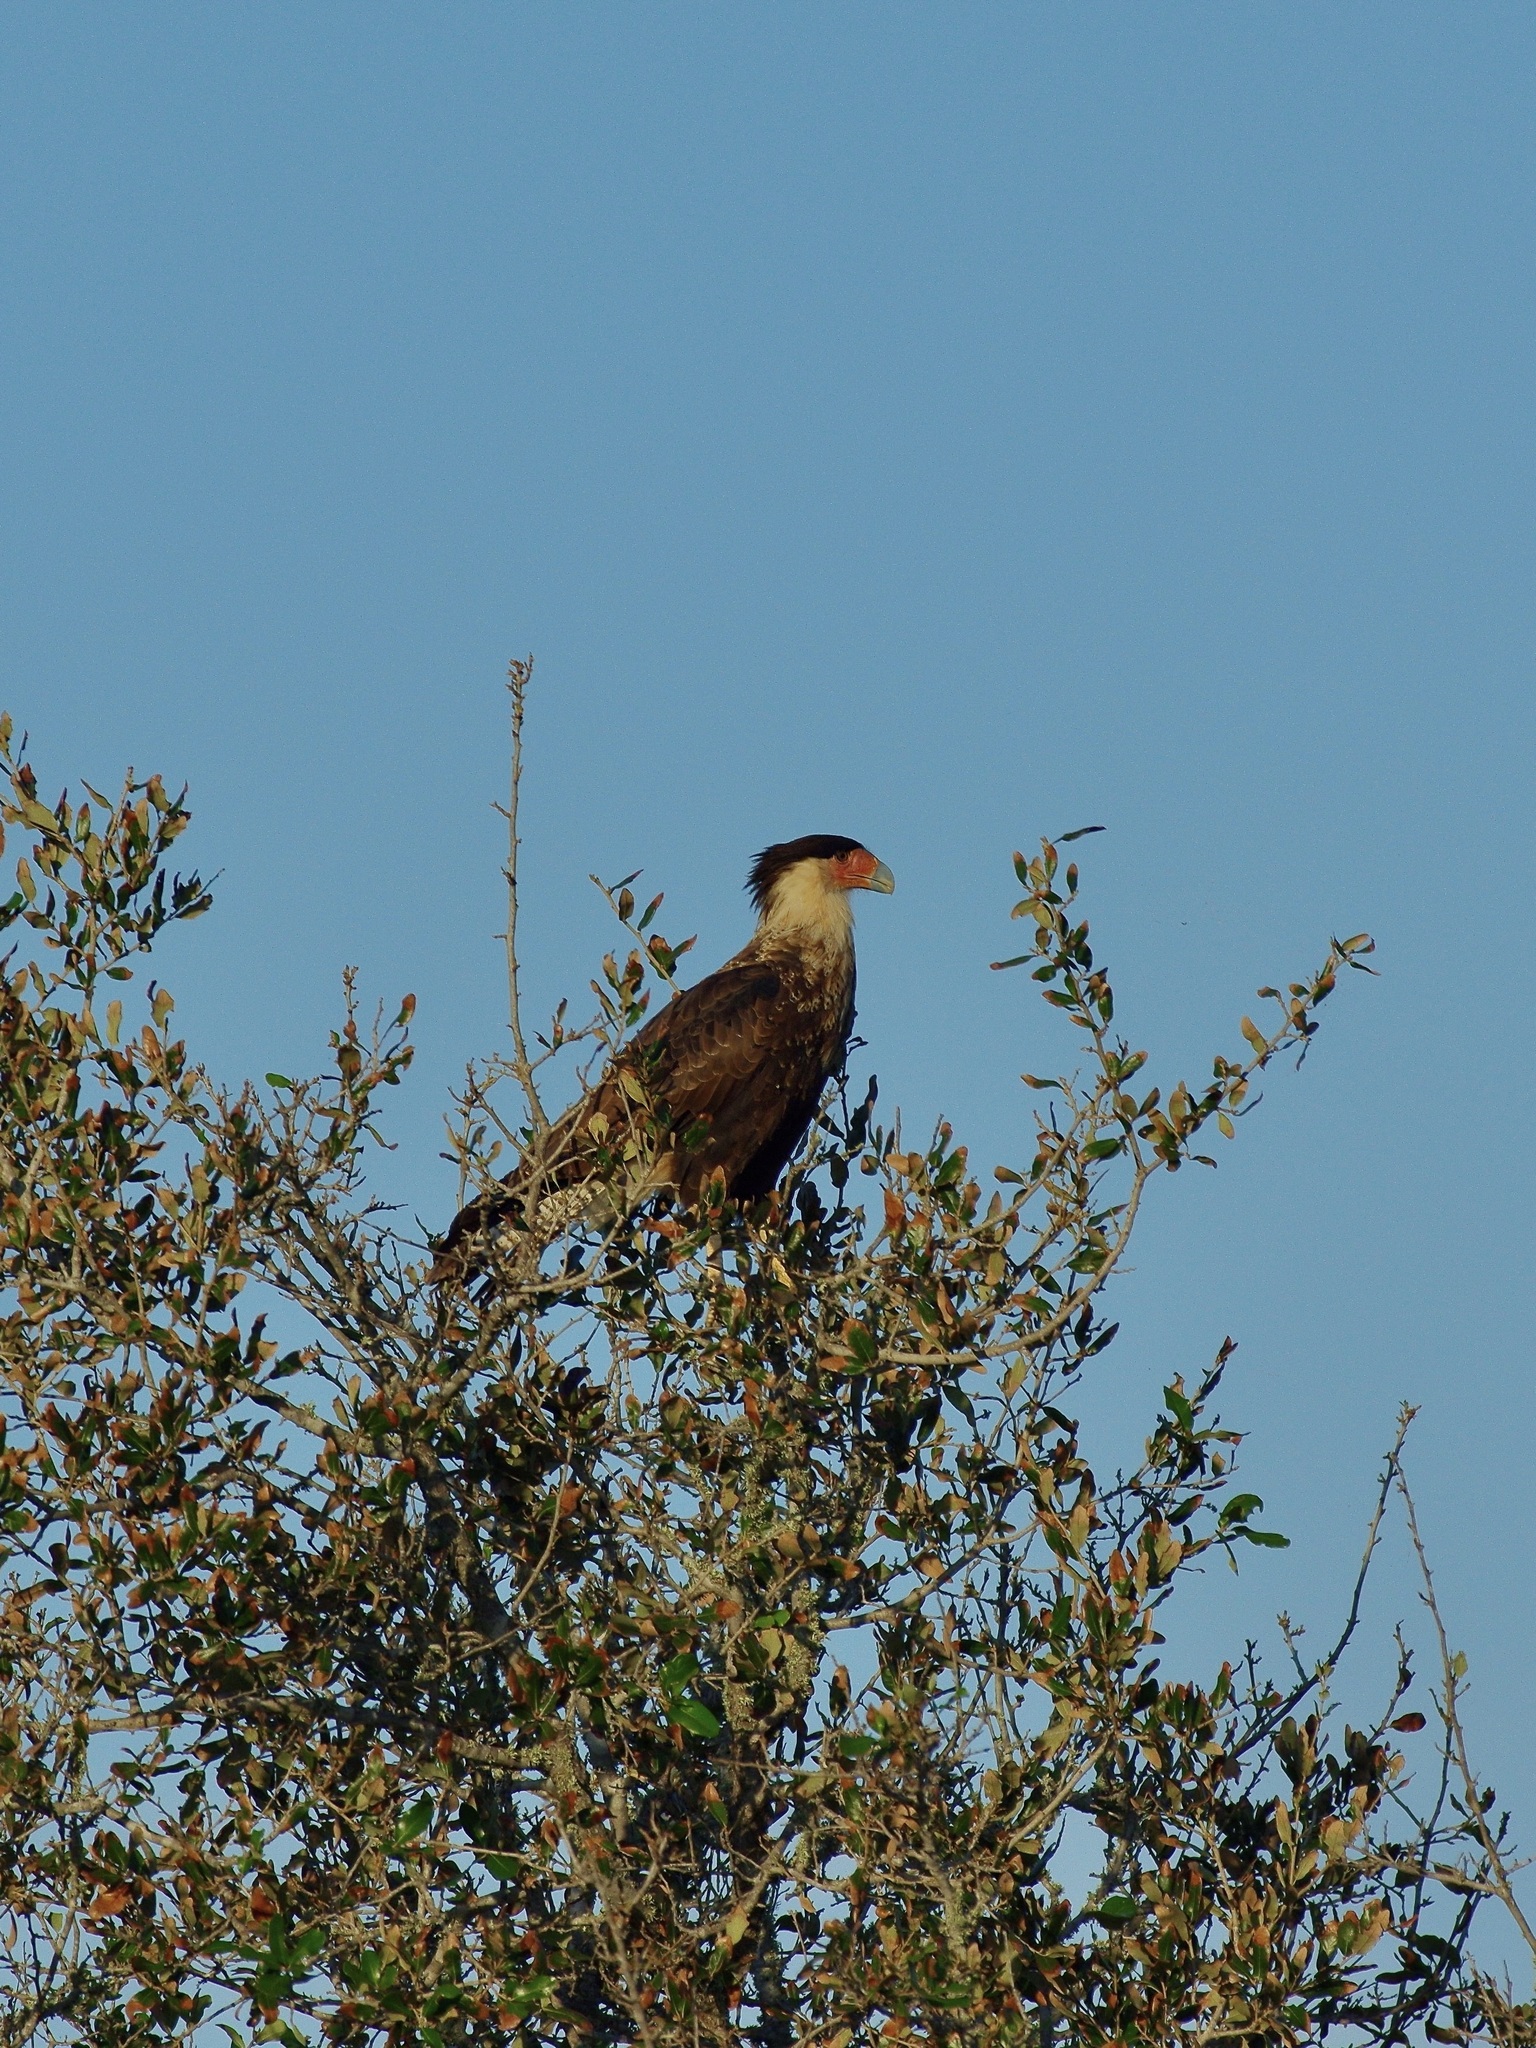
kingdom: Animalia
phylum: Chordata
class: Aves
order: Falconiformes
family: Falconidae
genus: Caracara
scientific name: Caracara plancus
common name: Southern caracara
